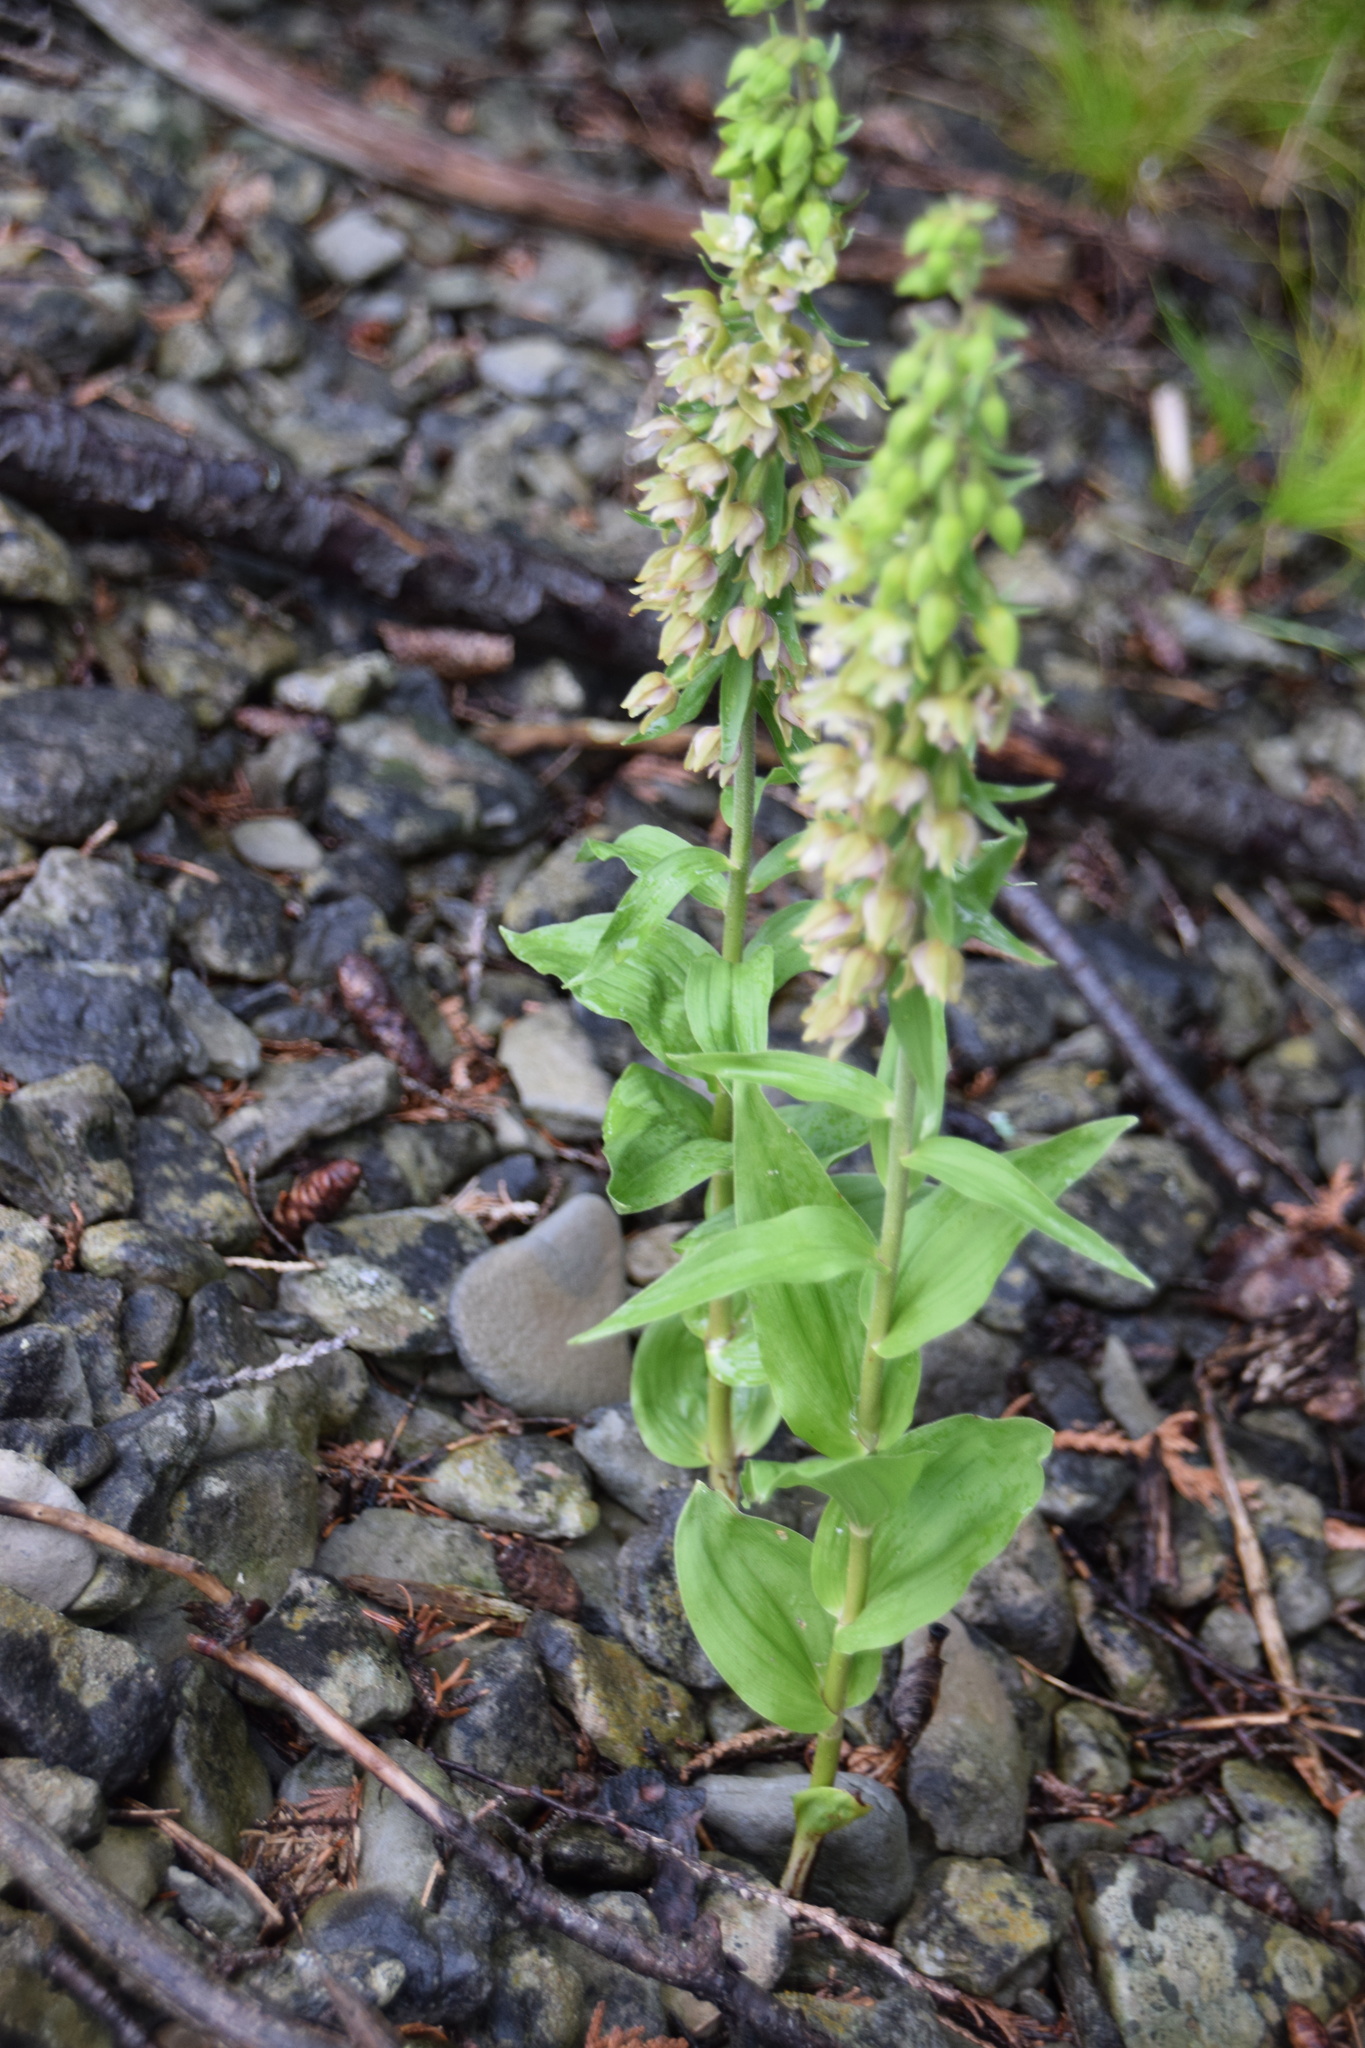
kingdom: Plantae
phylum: Tracheophyta
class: Liliopsida
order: Asparagales
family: Orchidaceae
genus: Epipactis
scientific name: Epipactis helleborine
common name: Broad-leaved helleborine
